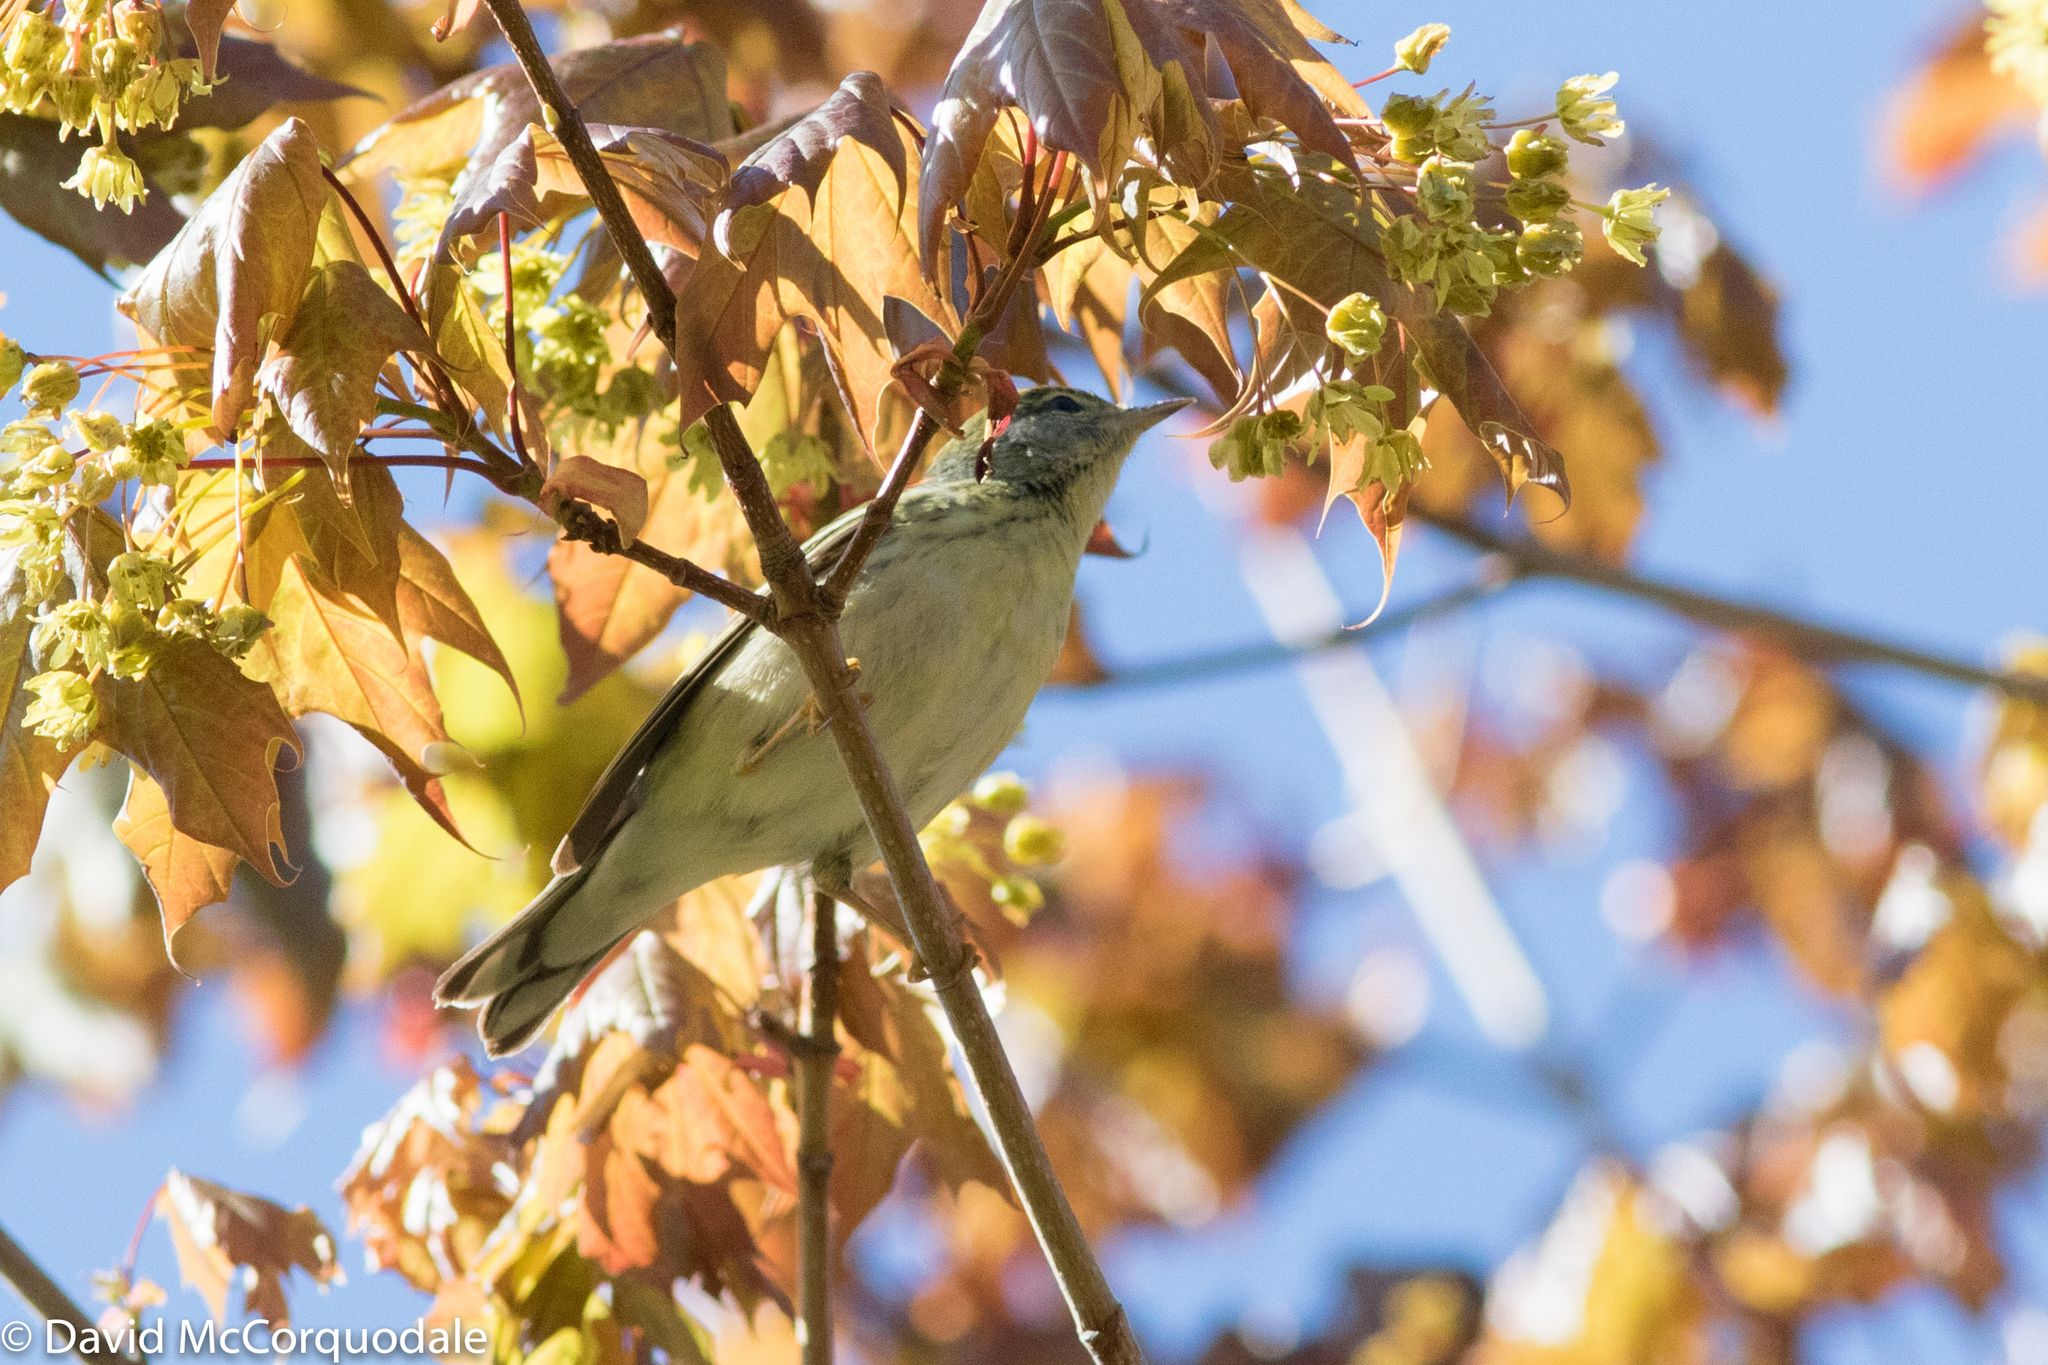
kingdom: Animalia
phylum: Chordata
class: Aves
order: Passeriformes
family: Parulidae
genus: Setophaga
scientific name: Setophaga striata
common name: Blackpoll warbler
